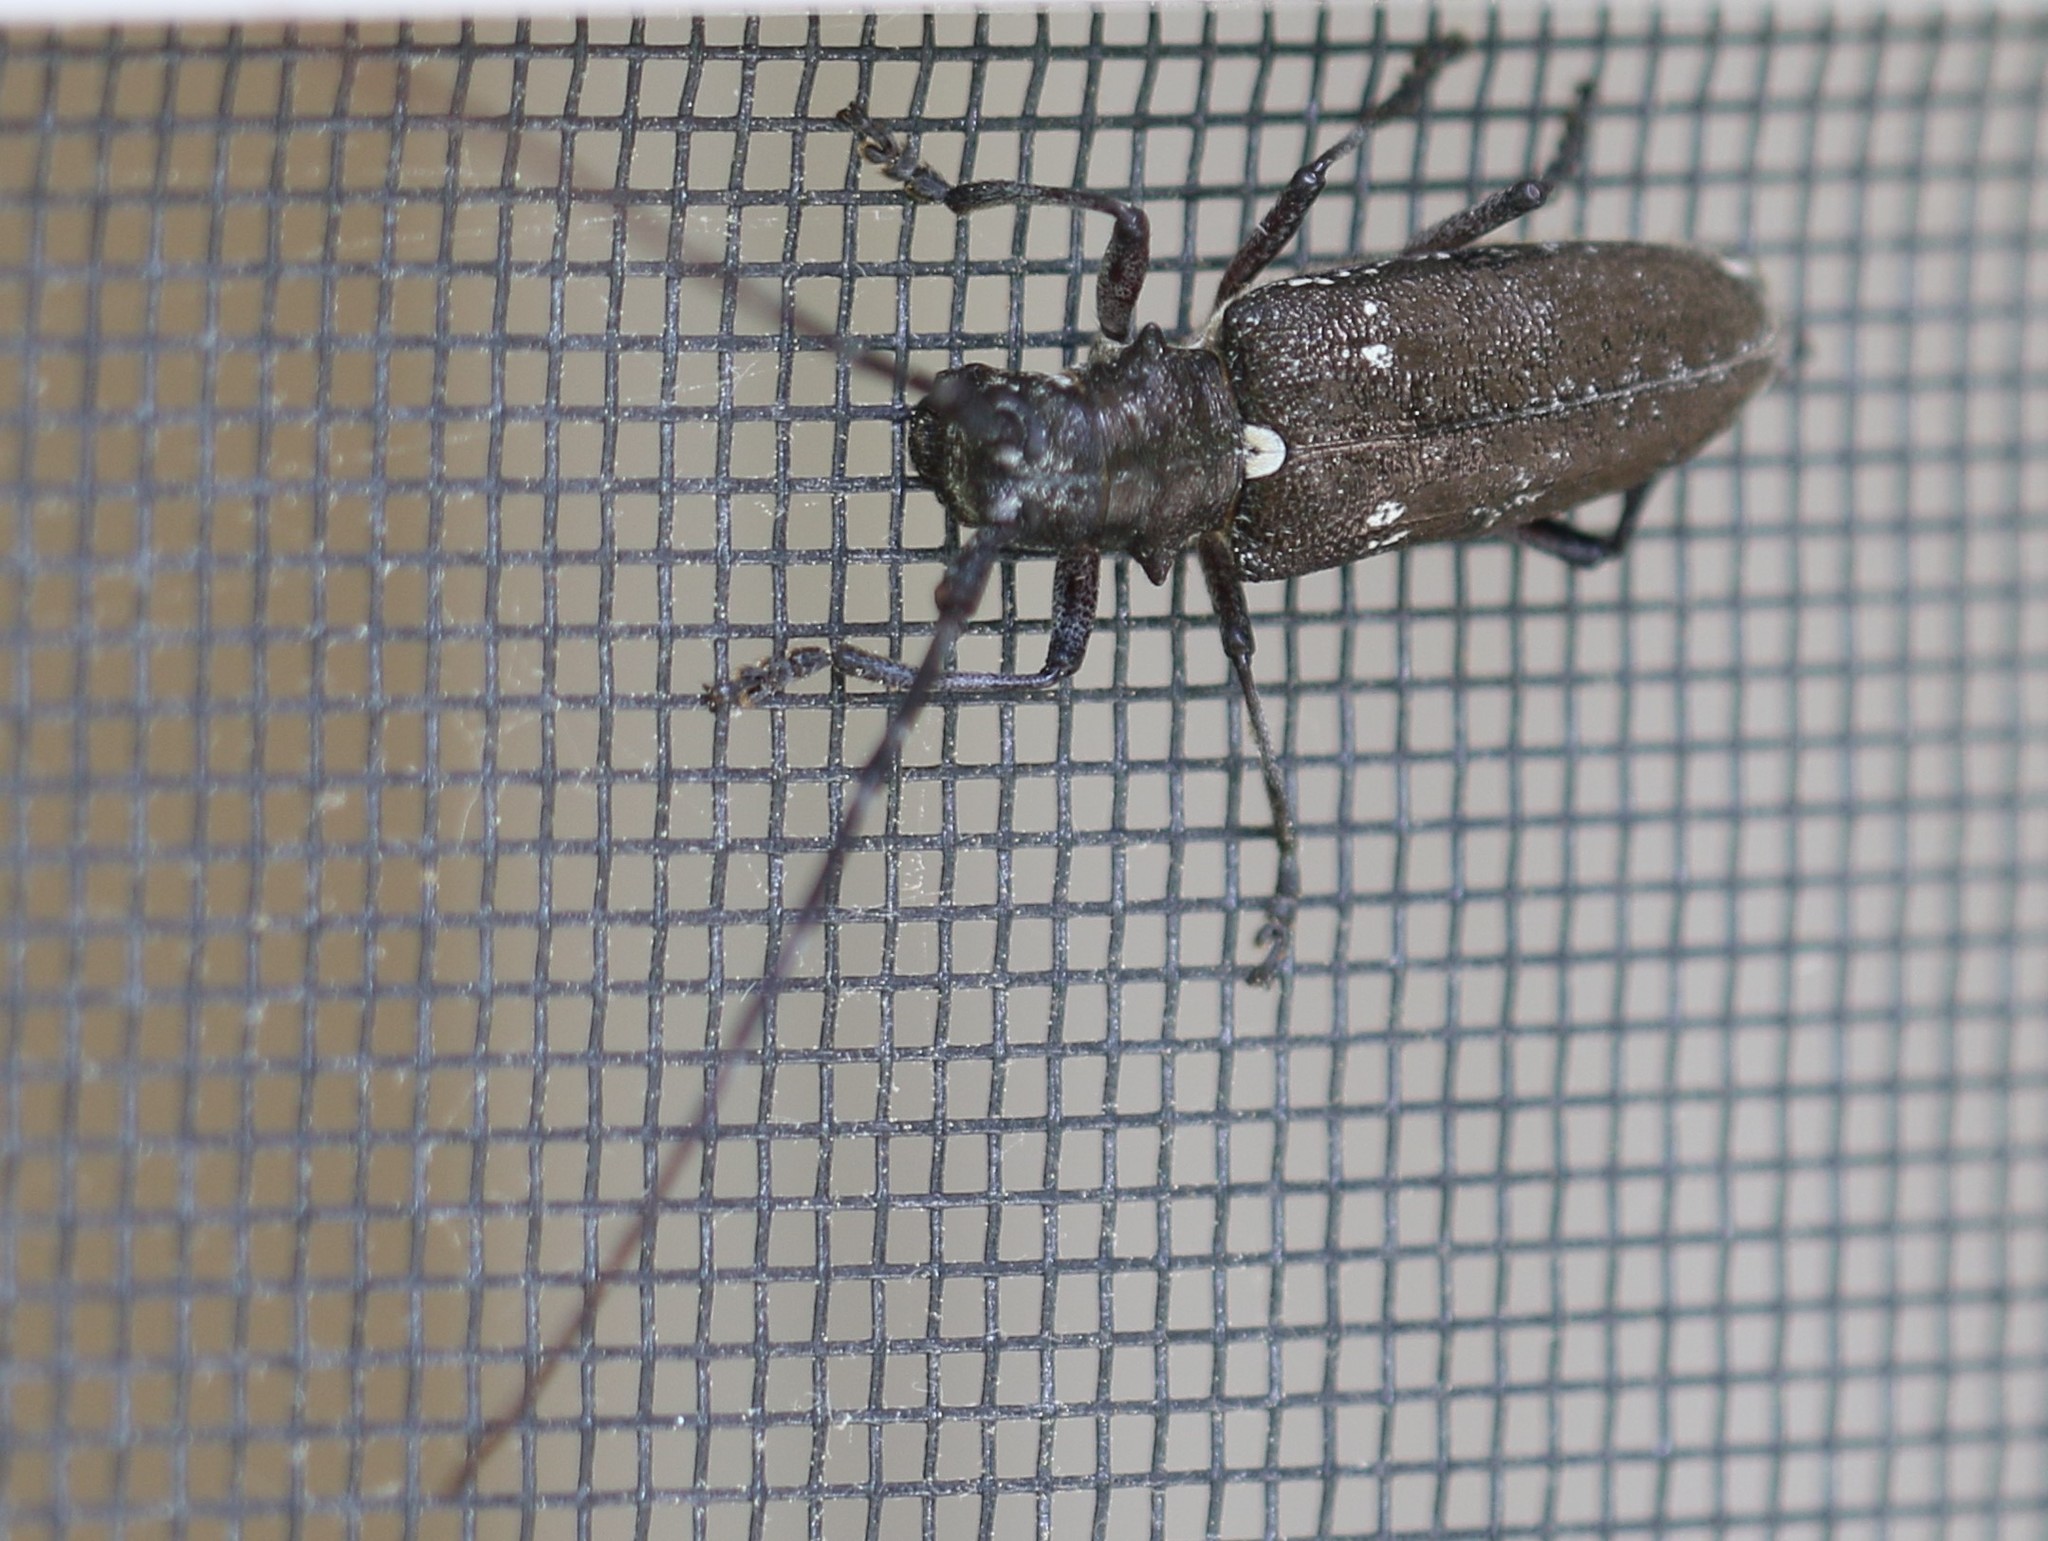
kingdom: Animalia
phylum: Arthropoda
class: Insecta
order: Coleoptera
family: Cerambycidae
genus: Monochamus
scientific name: Monochamus scutellatus
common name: White-spotted sawyer beetle
